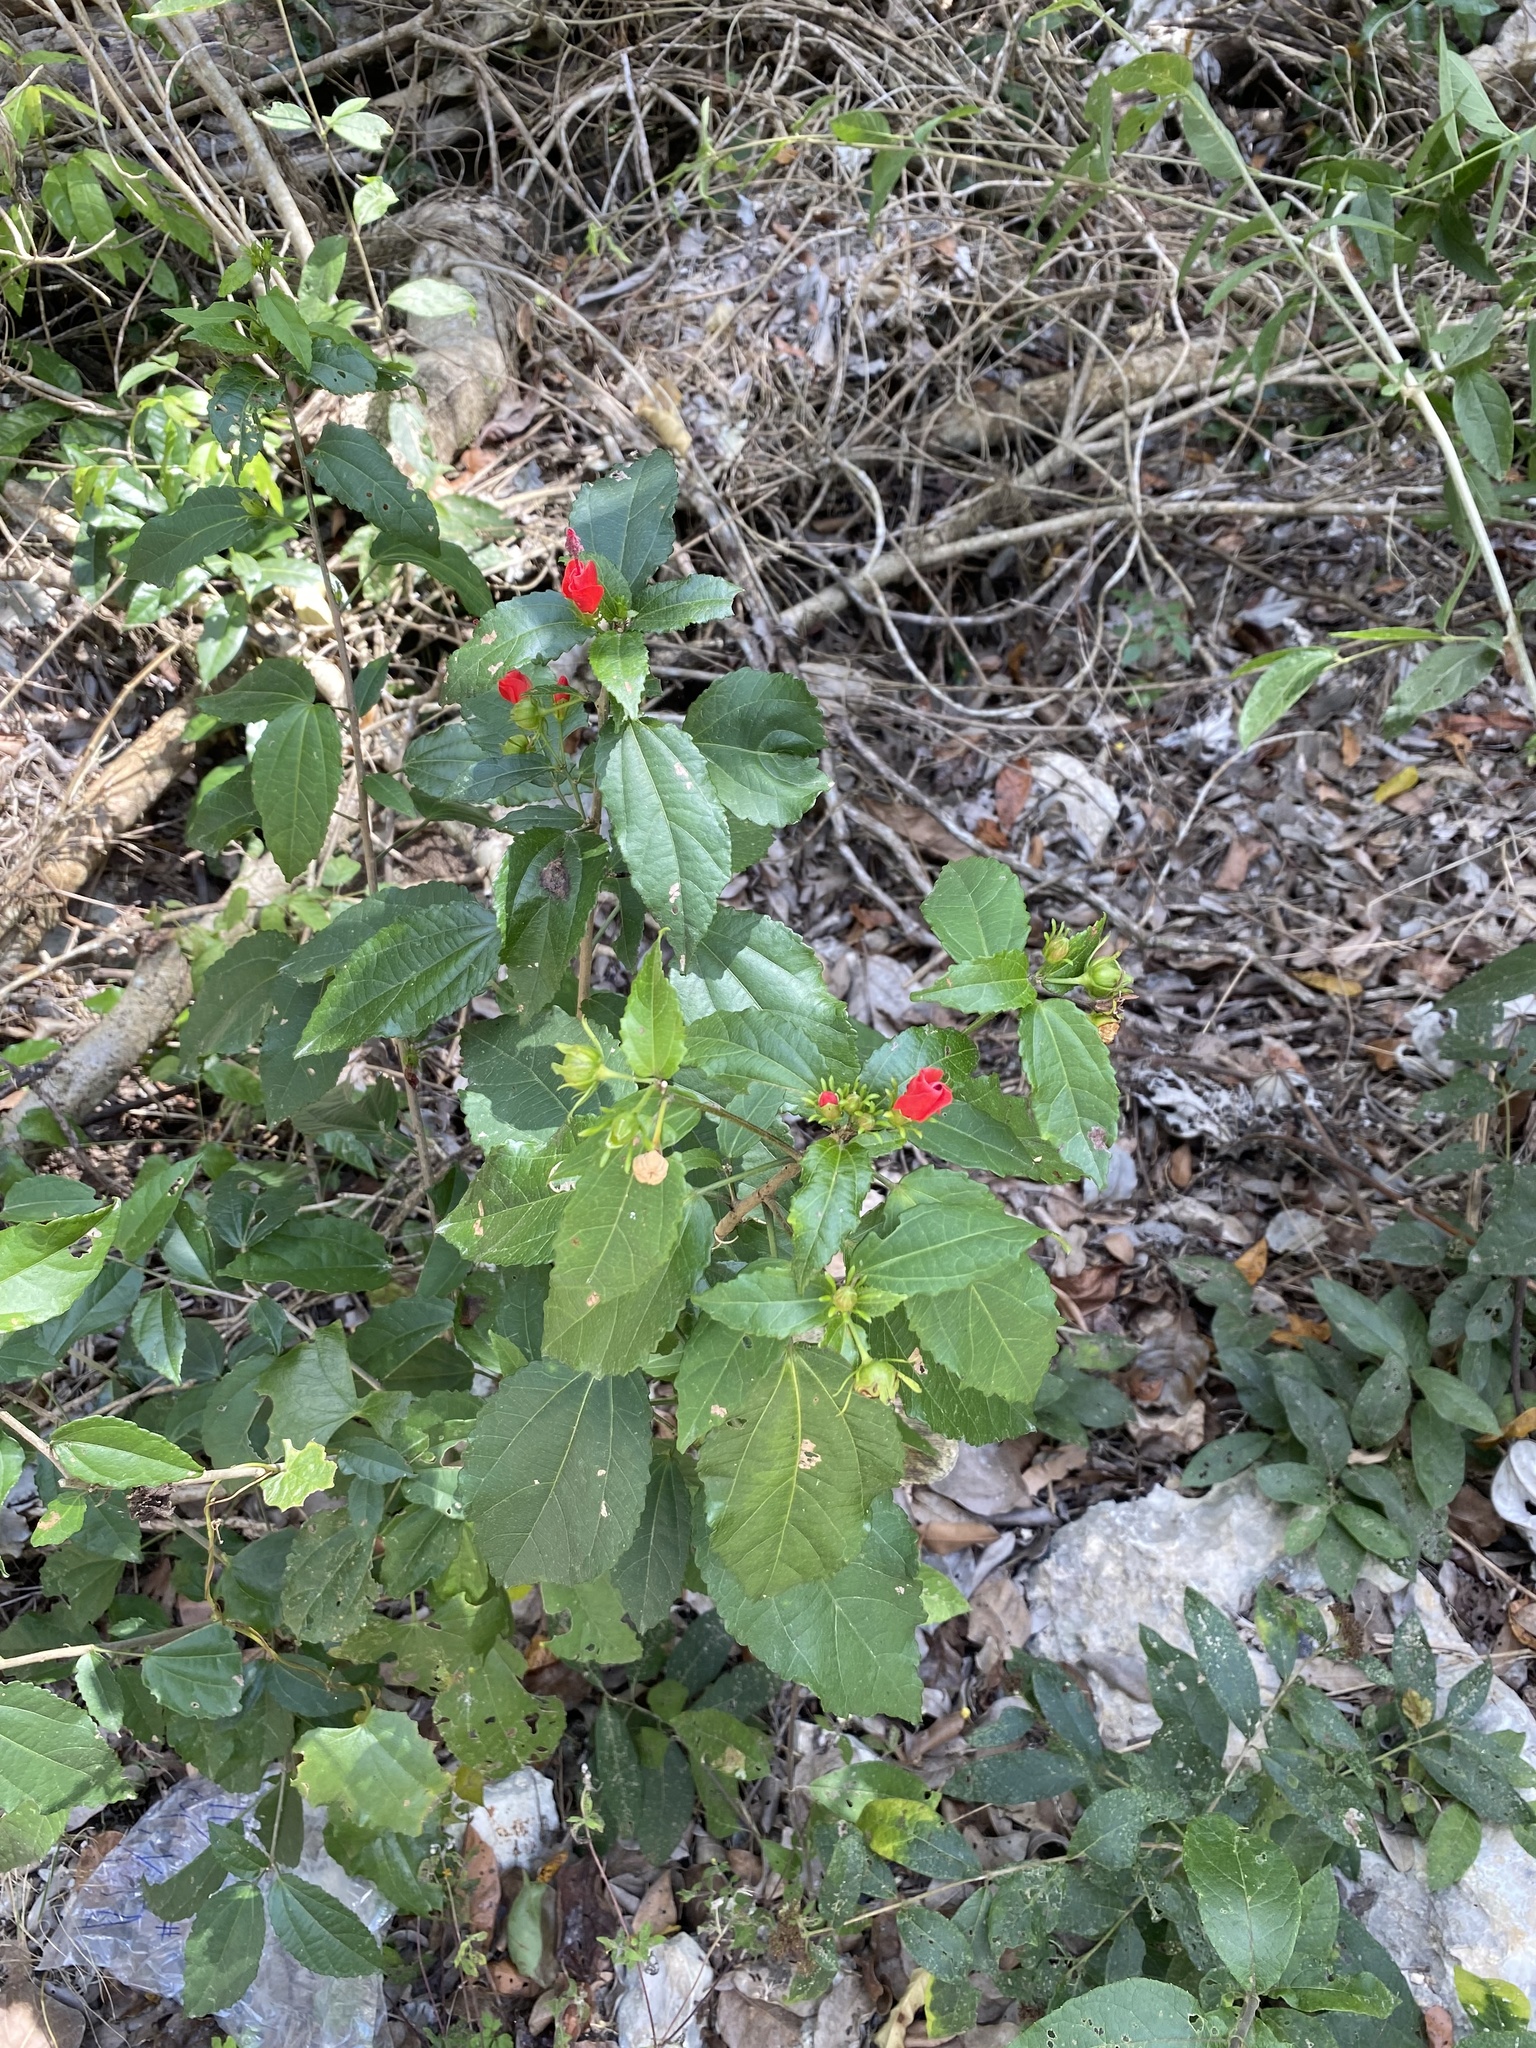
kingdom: Plantae
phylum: Tracheophyta
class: Magnoliopsida
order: Malvales
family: Malvaceae
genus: Malvaviscus
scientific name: Malvaviscus arboreus
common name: Wax mallow
